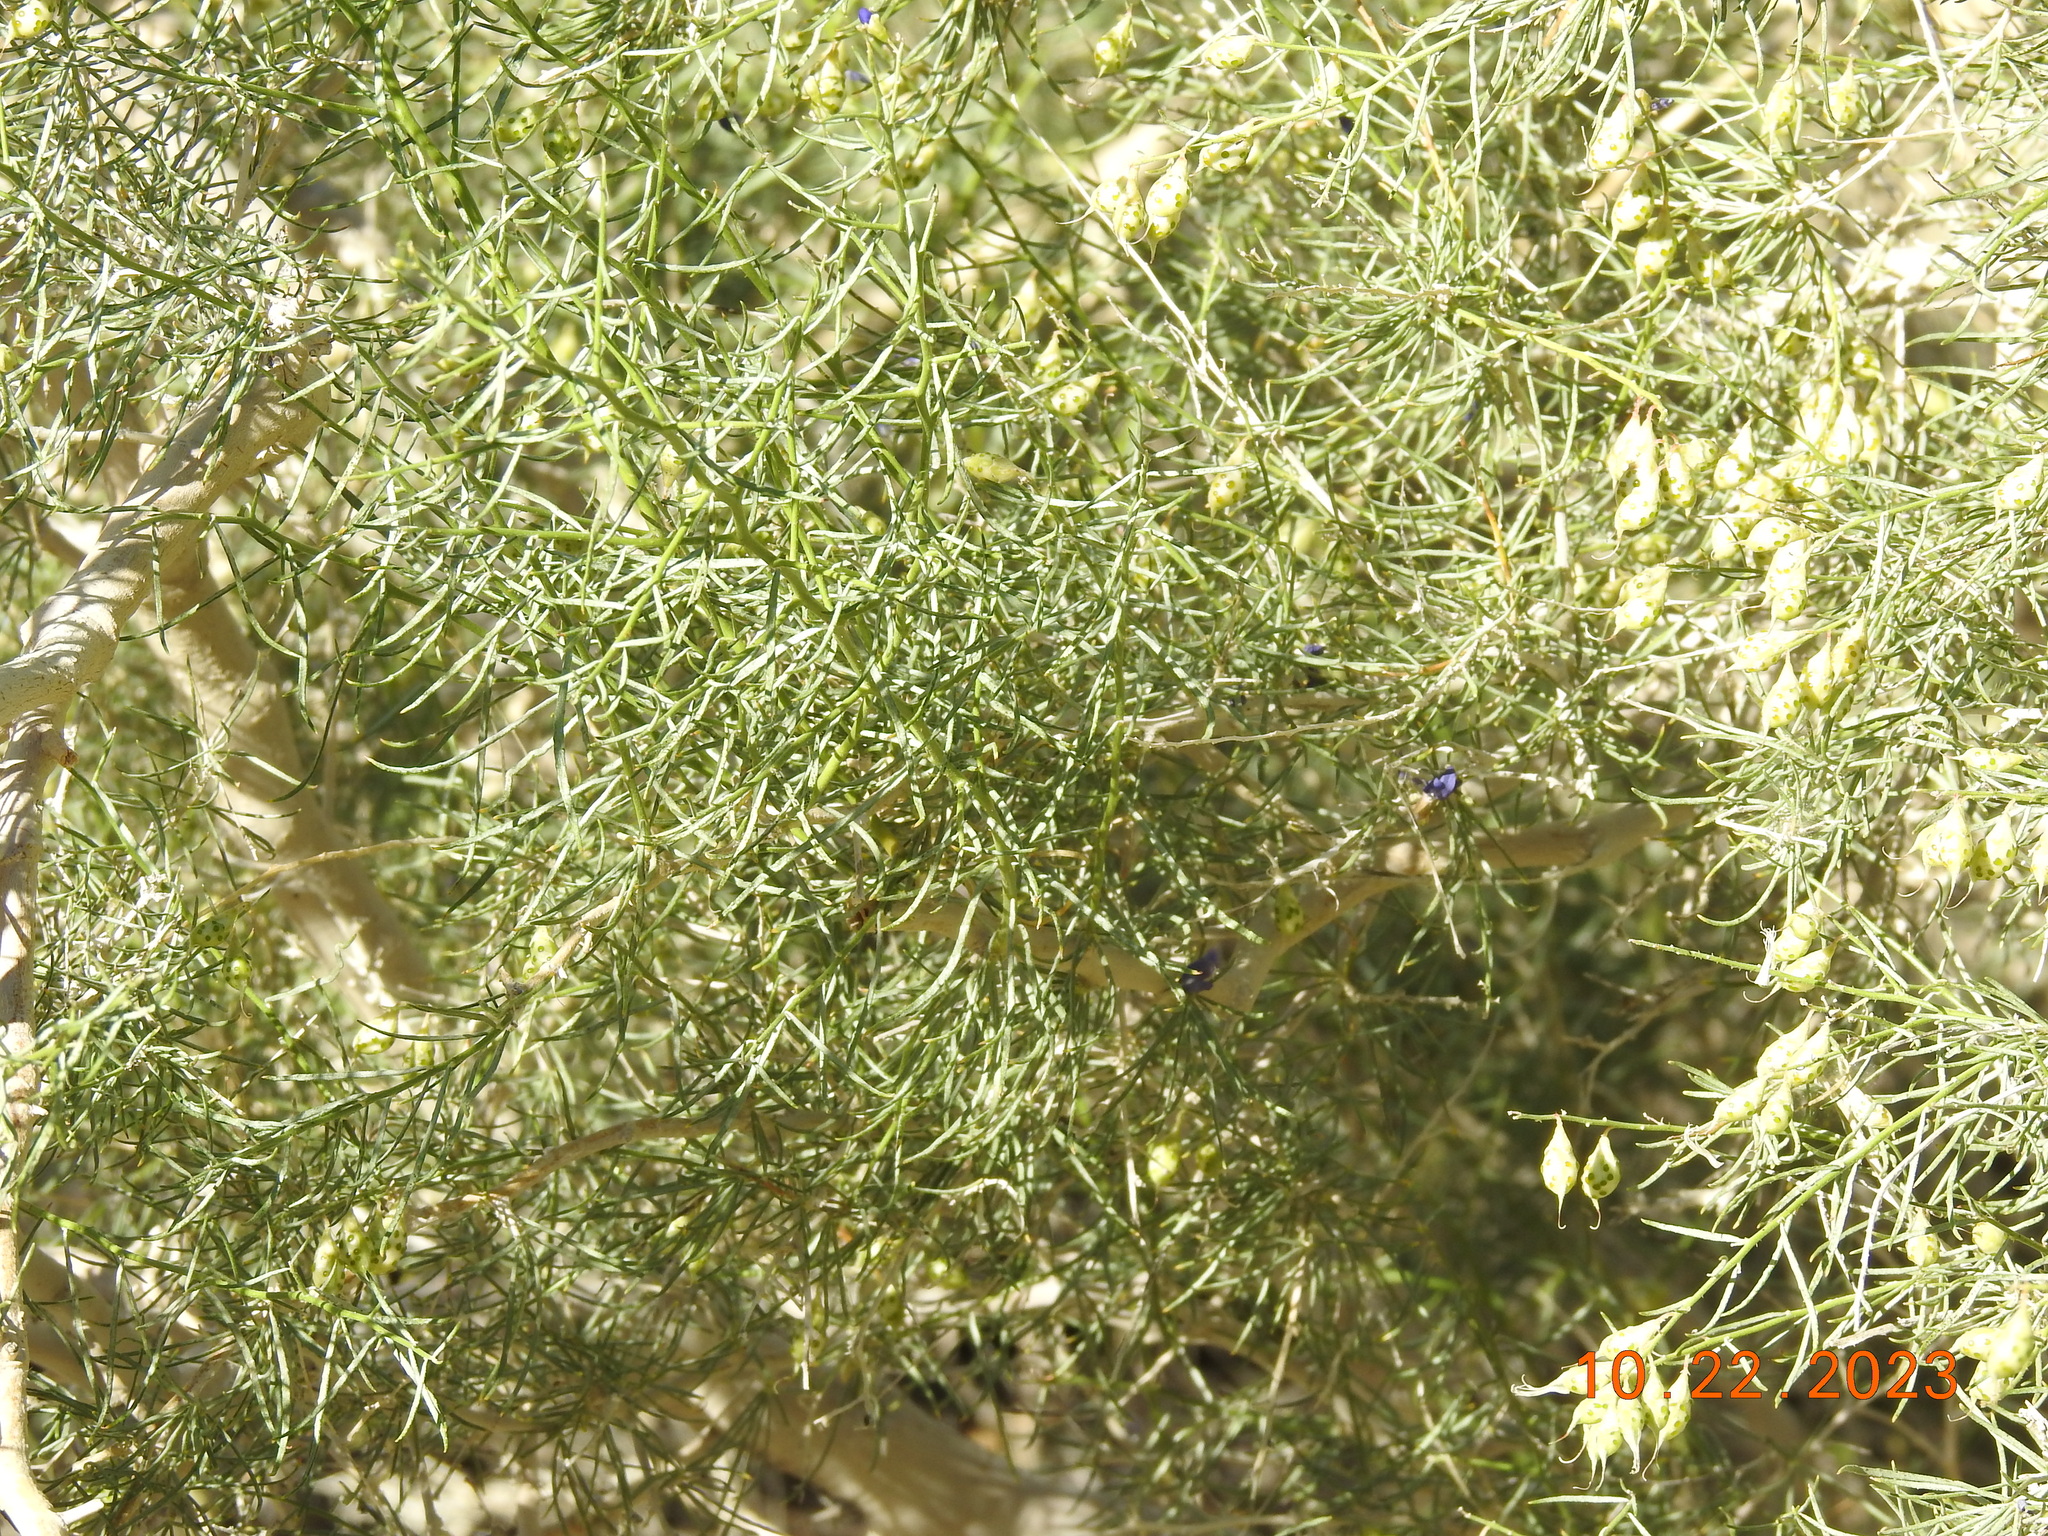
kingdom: Plantae
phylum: Tracheophyta
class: Magnoliopsida
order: Fabales
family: Fabaceae
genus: Psorothamnus
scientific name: Psorothamnus schottii
